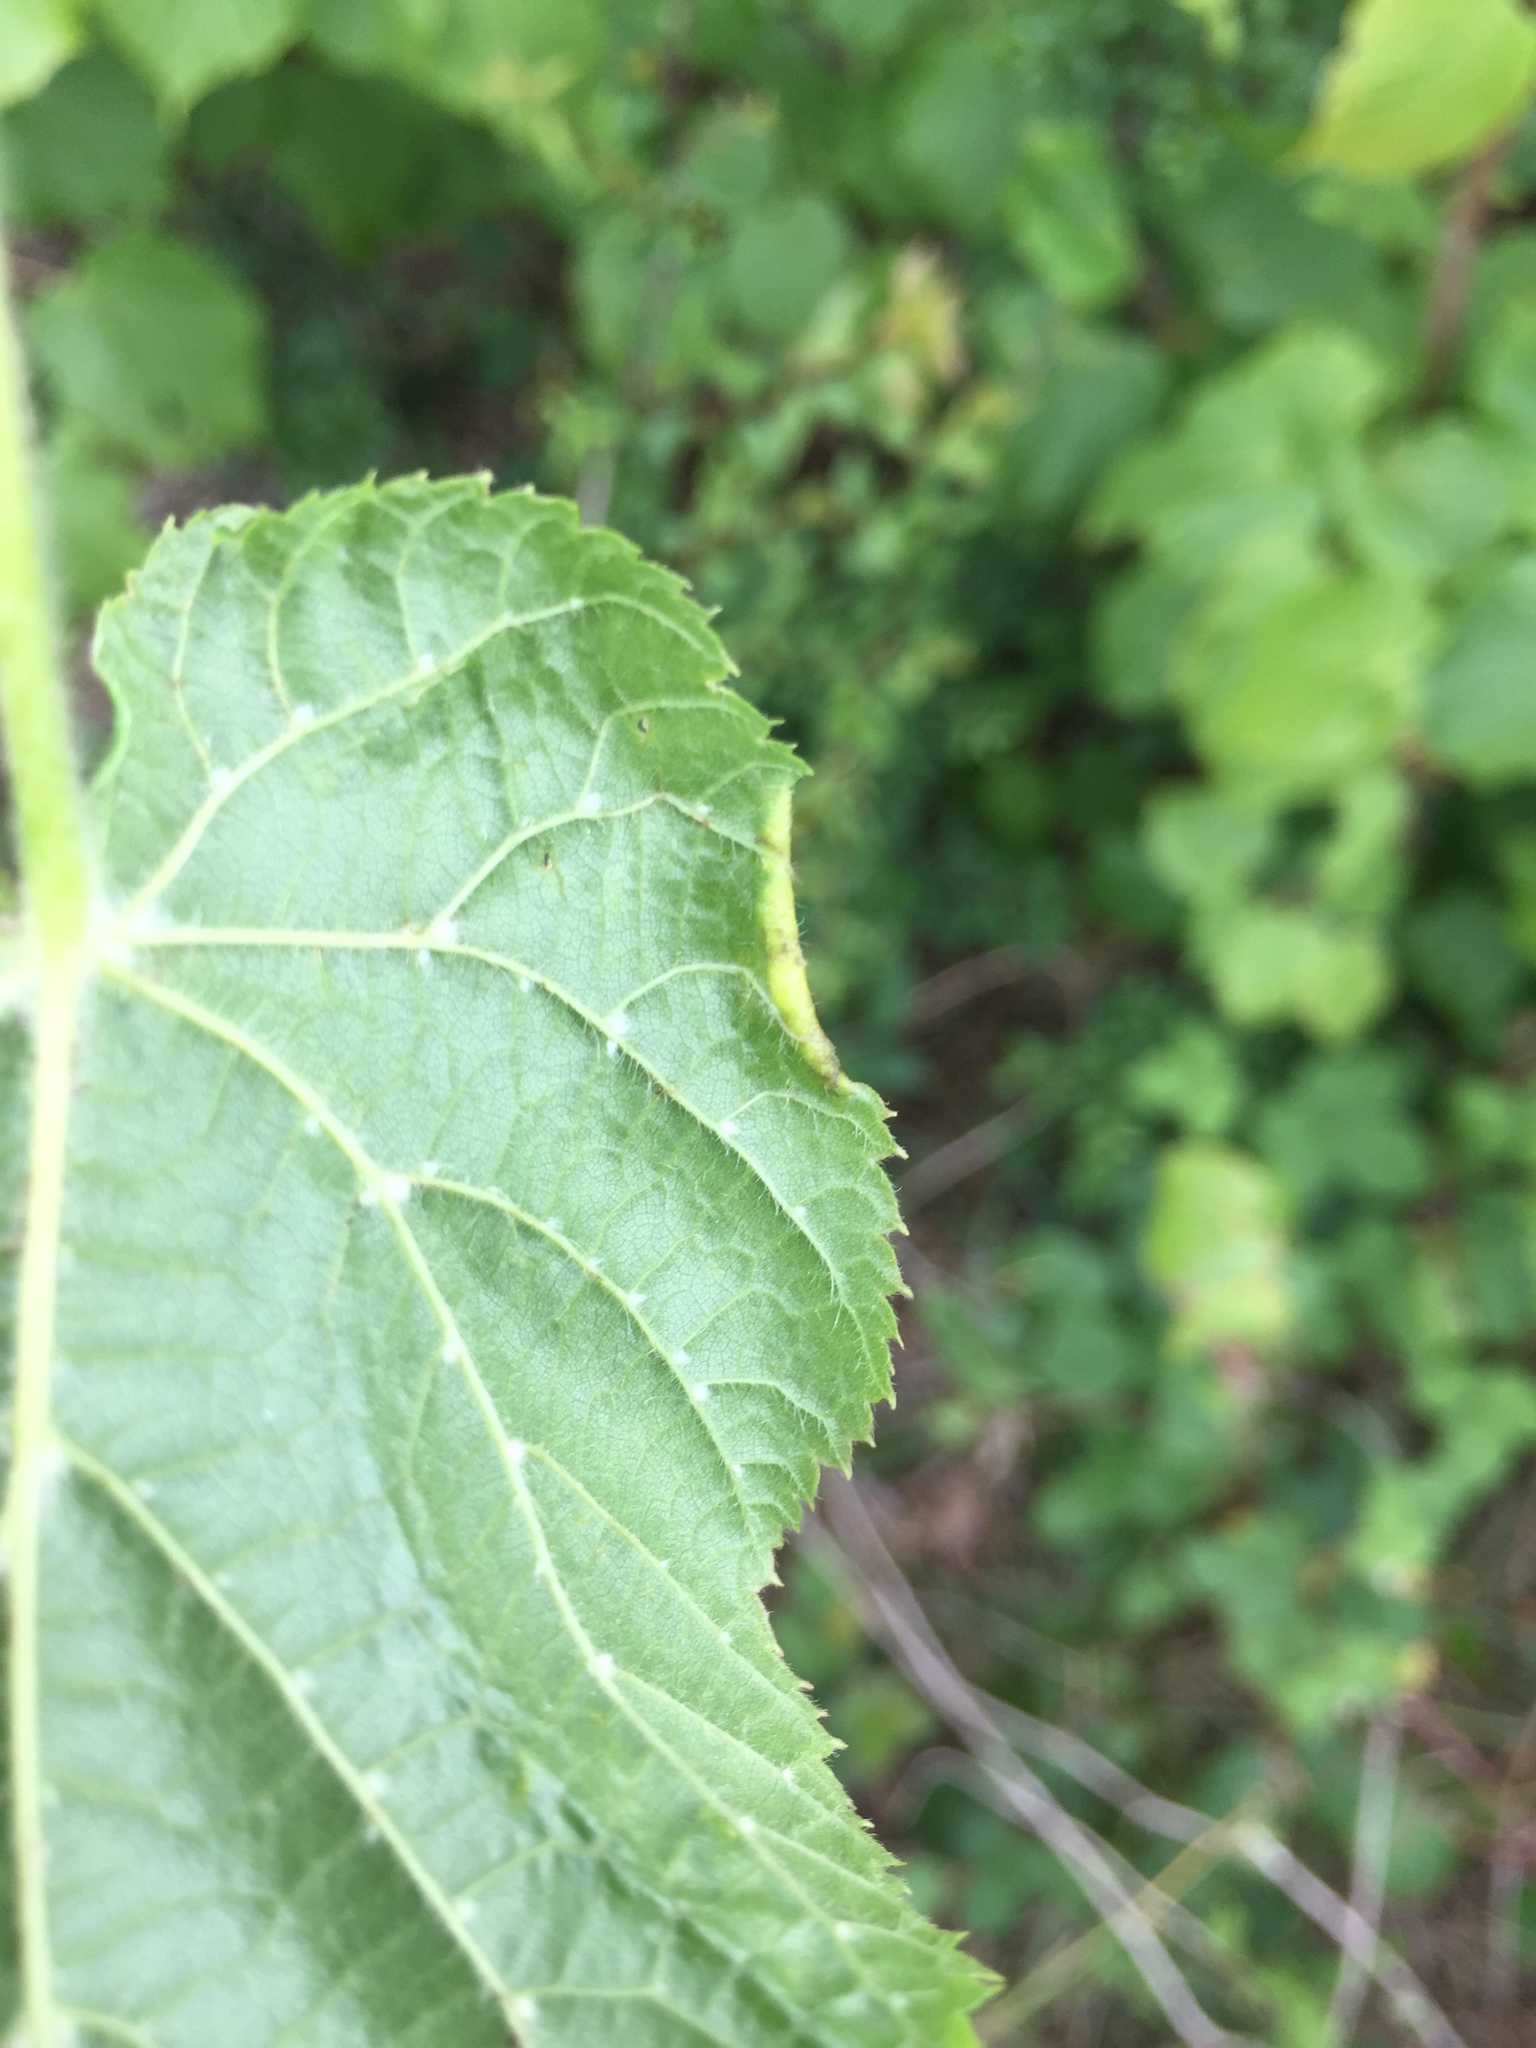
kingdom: Animalia
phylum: Arthropoda
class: Arachnida
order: Trombidiformes
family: Phytoptidae
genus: Phytoptus
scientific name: Phytoptus tetratrichus
